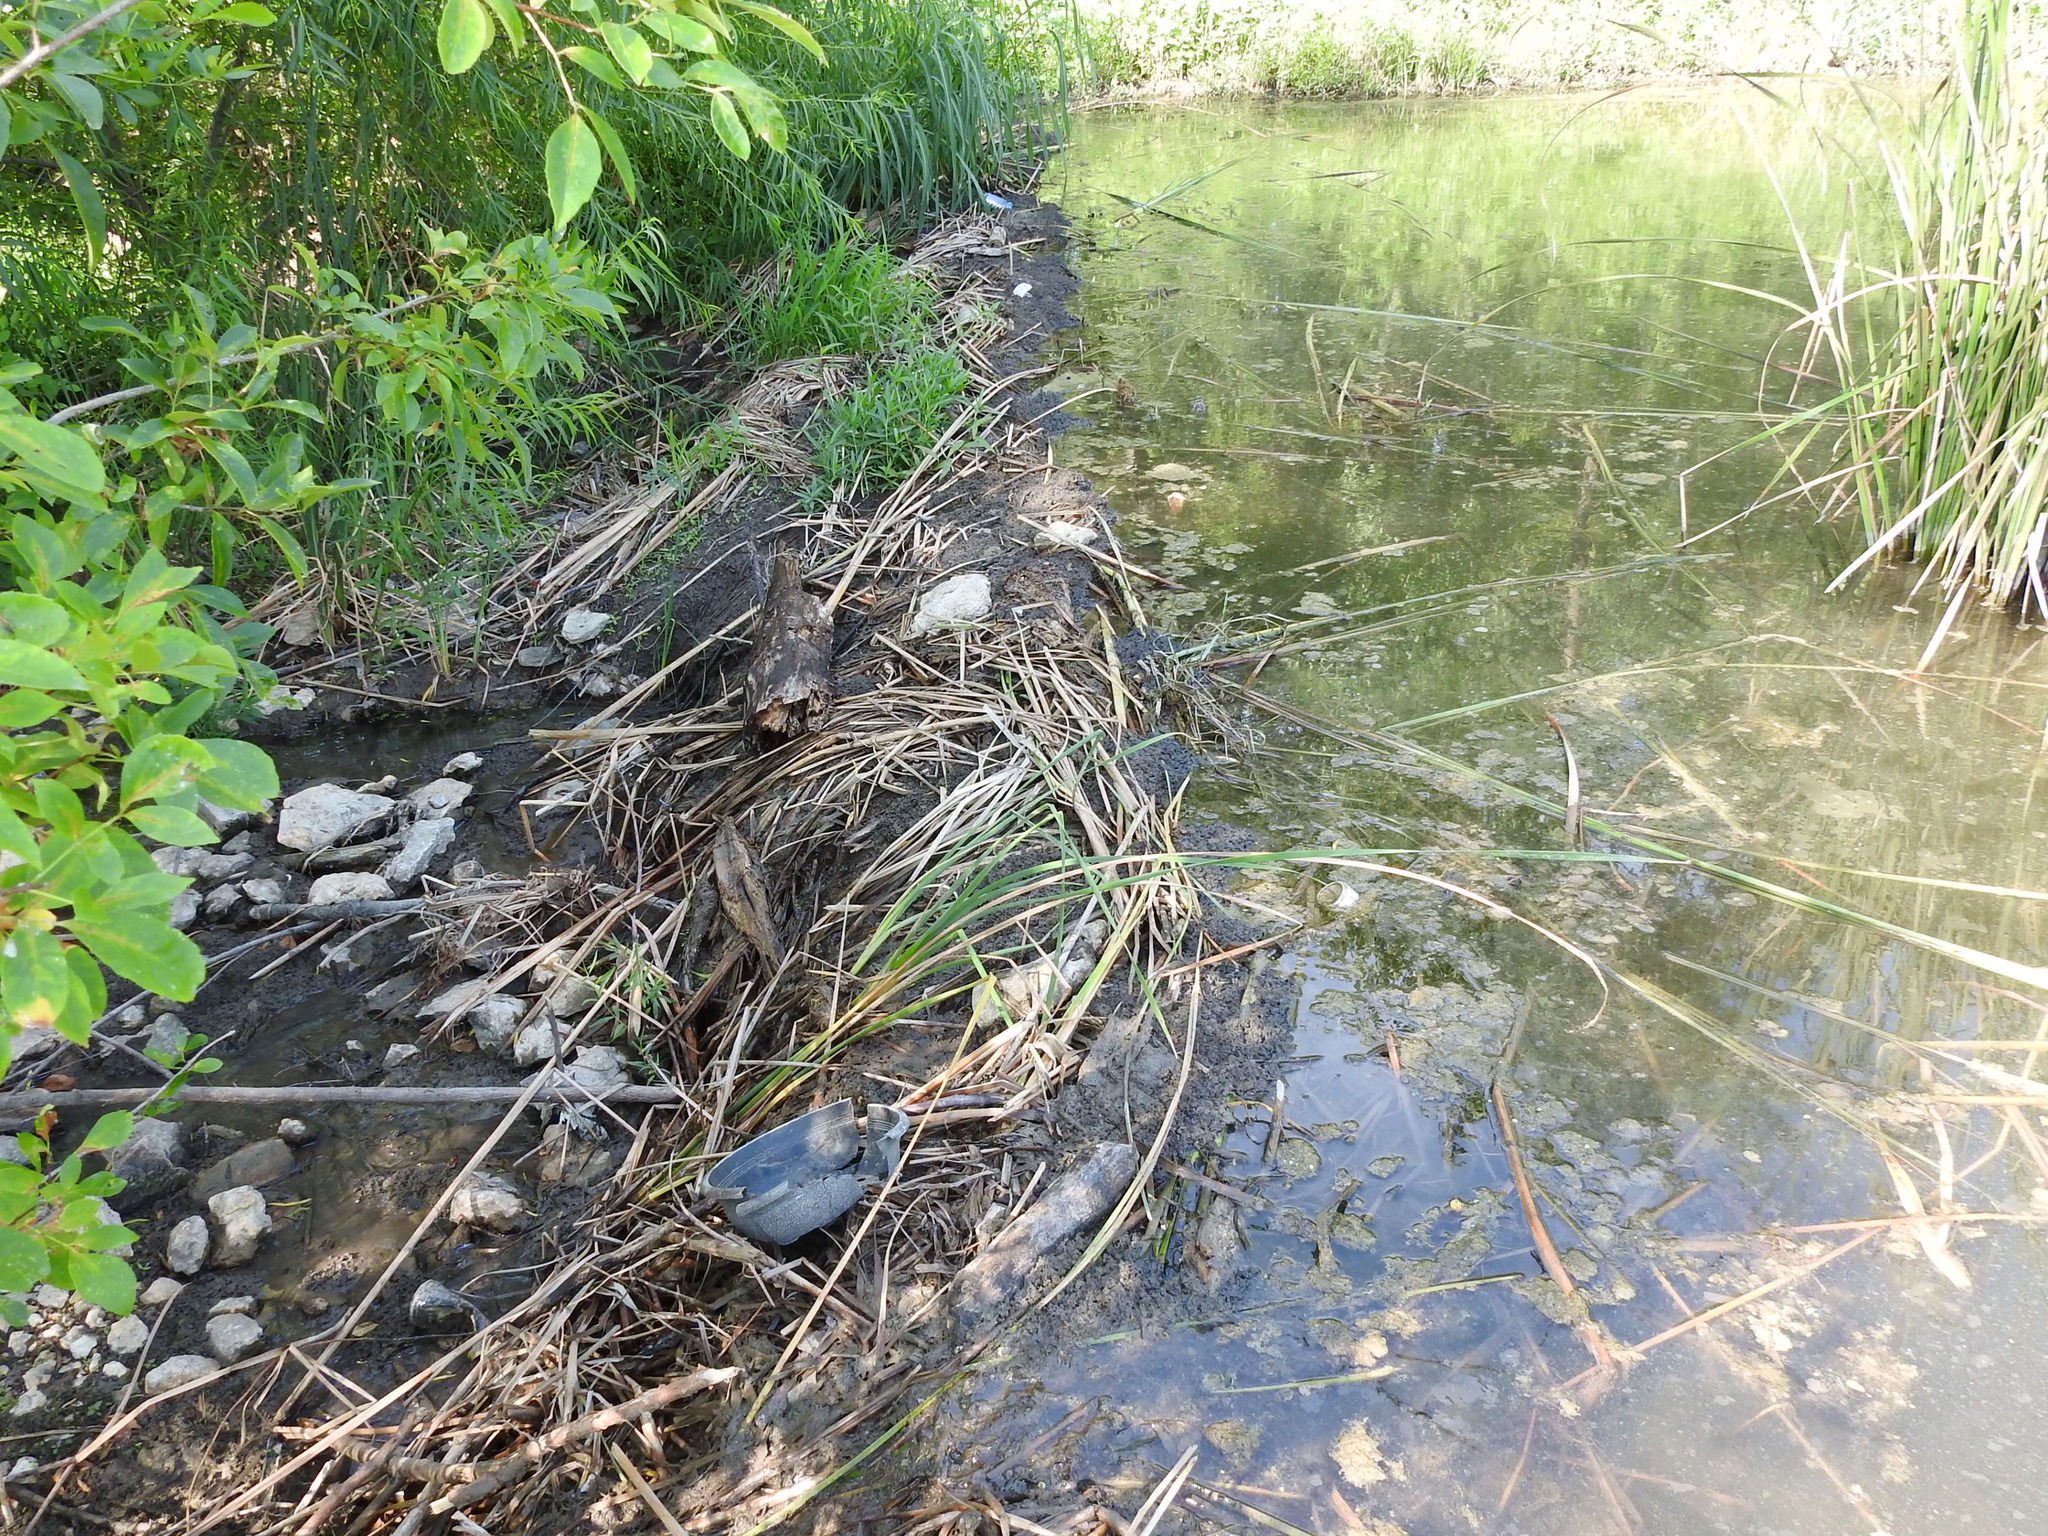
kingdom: Animalia
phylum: Chordata
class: Mammalia
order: Rodentia
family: Castoridae
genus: Castor
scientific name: Castor canadensis
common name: American beaver
